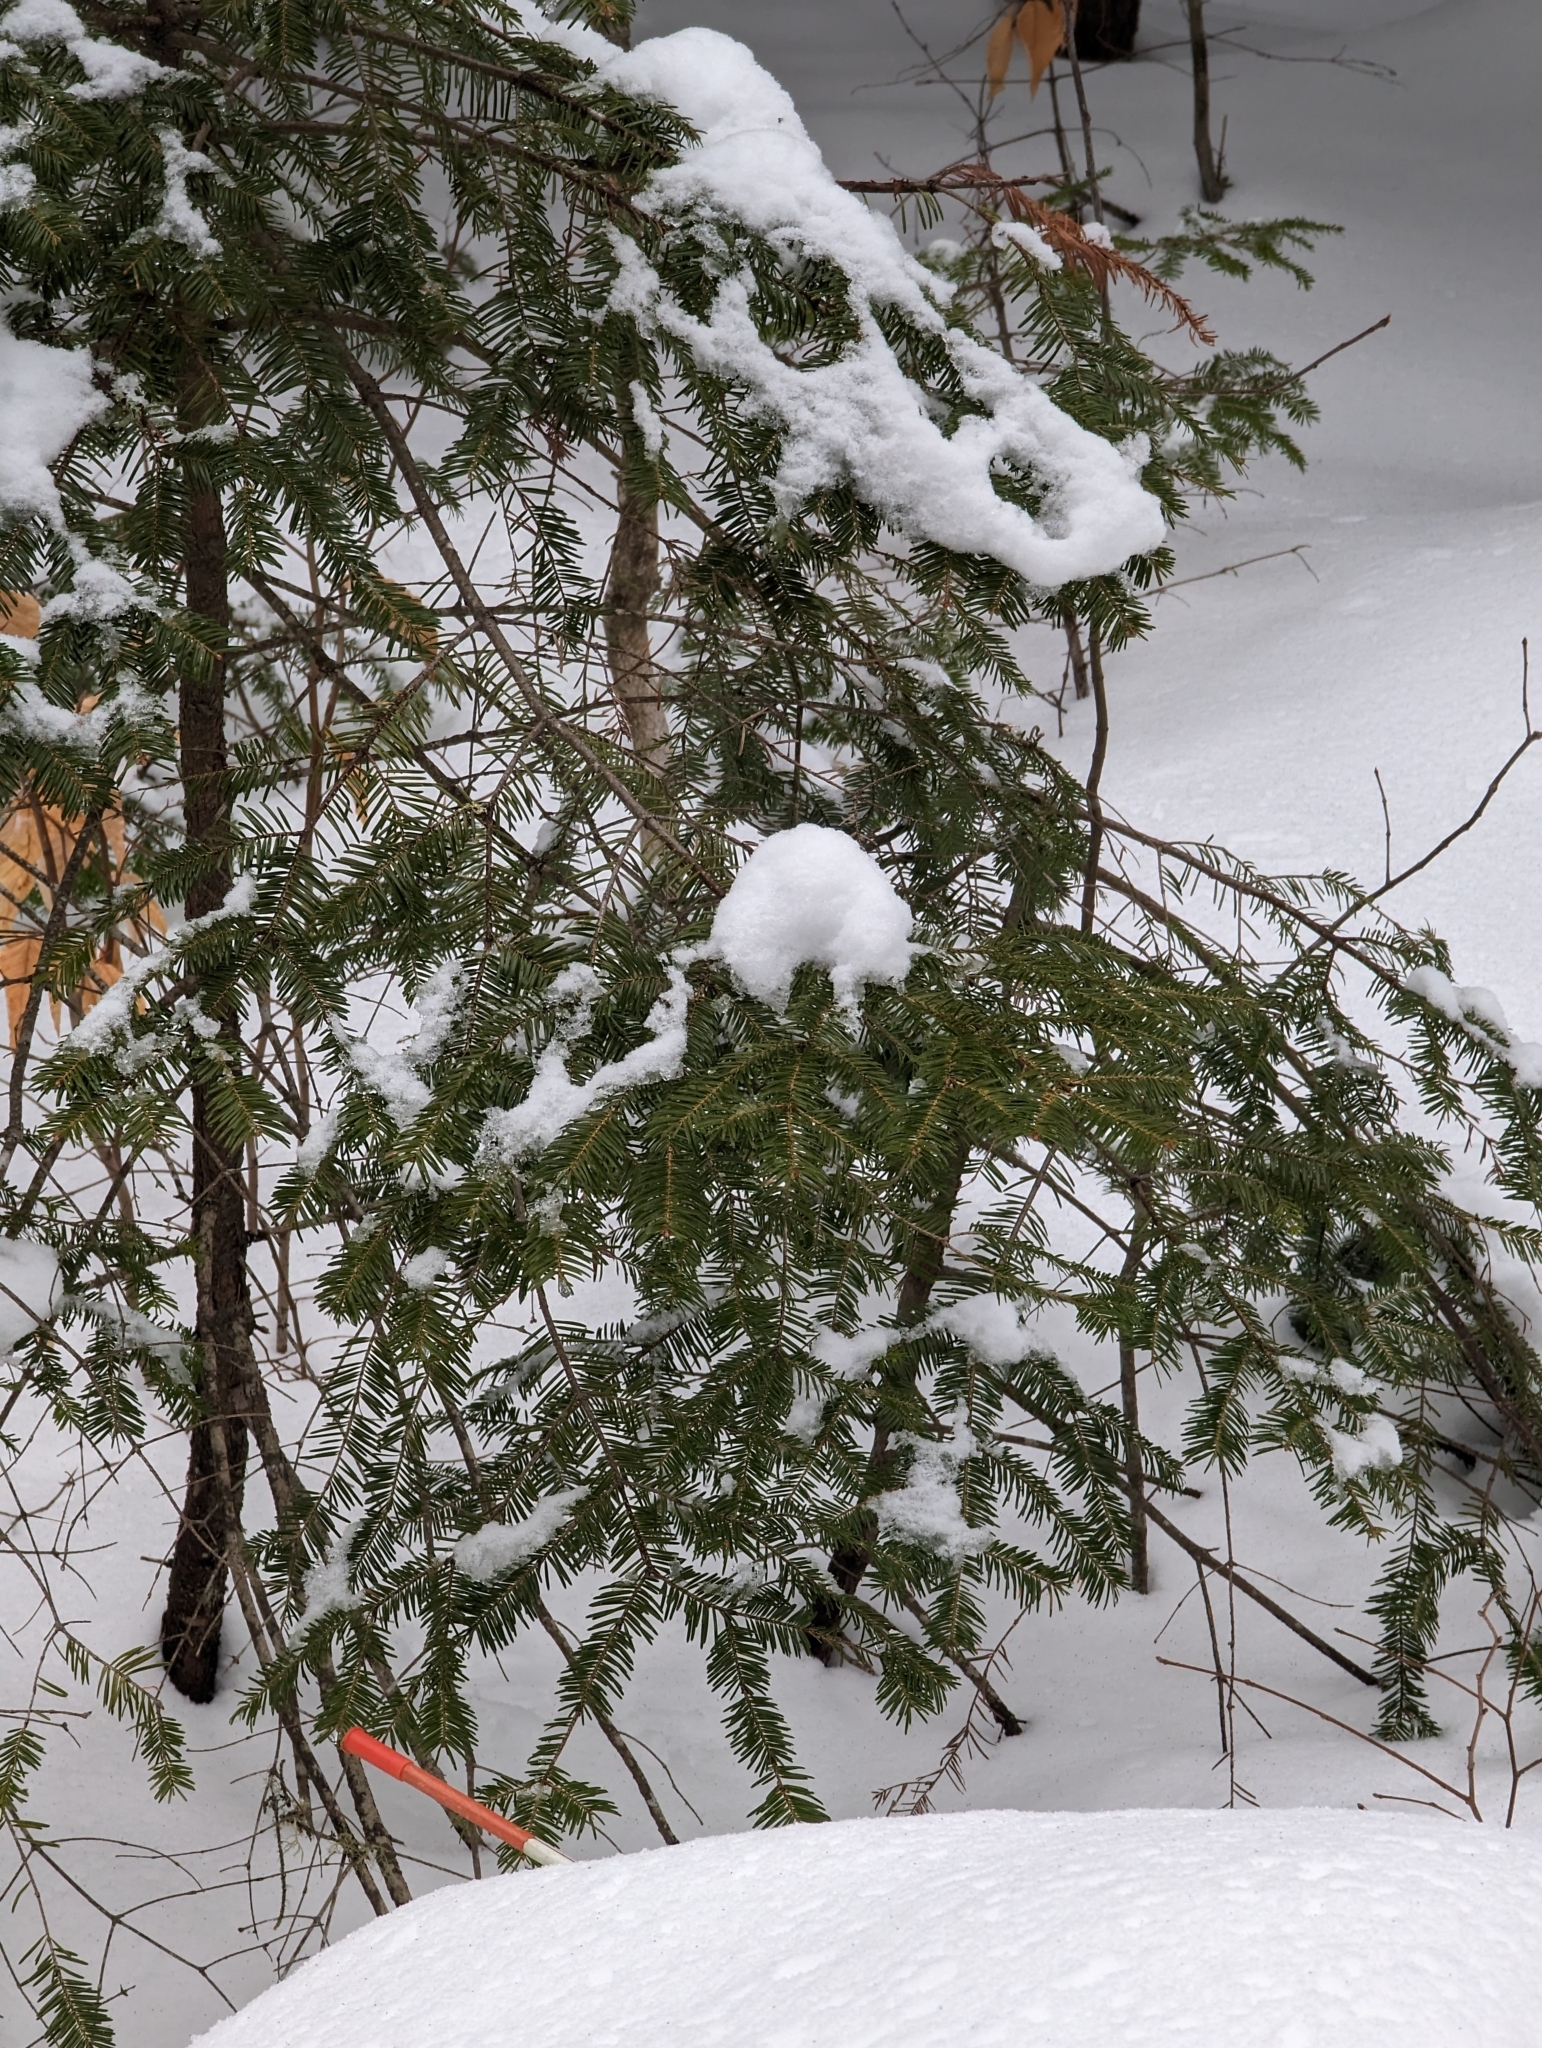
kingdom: Plantae
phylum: Tracheophyta
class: Pinopsida
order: Pinales
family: Pinaceae
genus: Abies
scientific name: Abies balsamea
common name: Balsam fir
